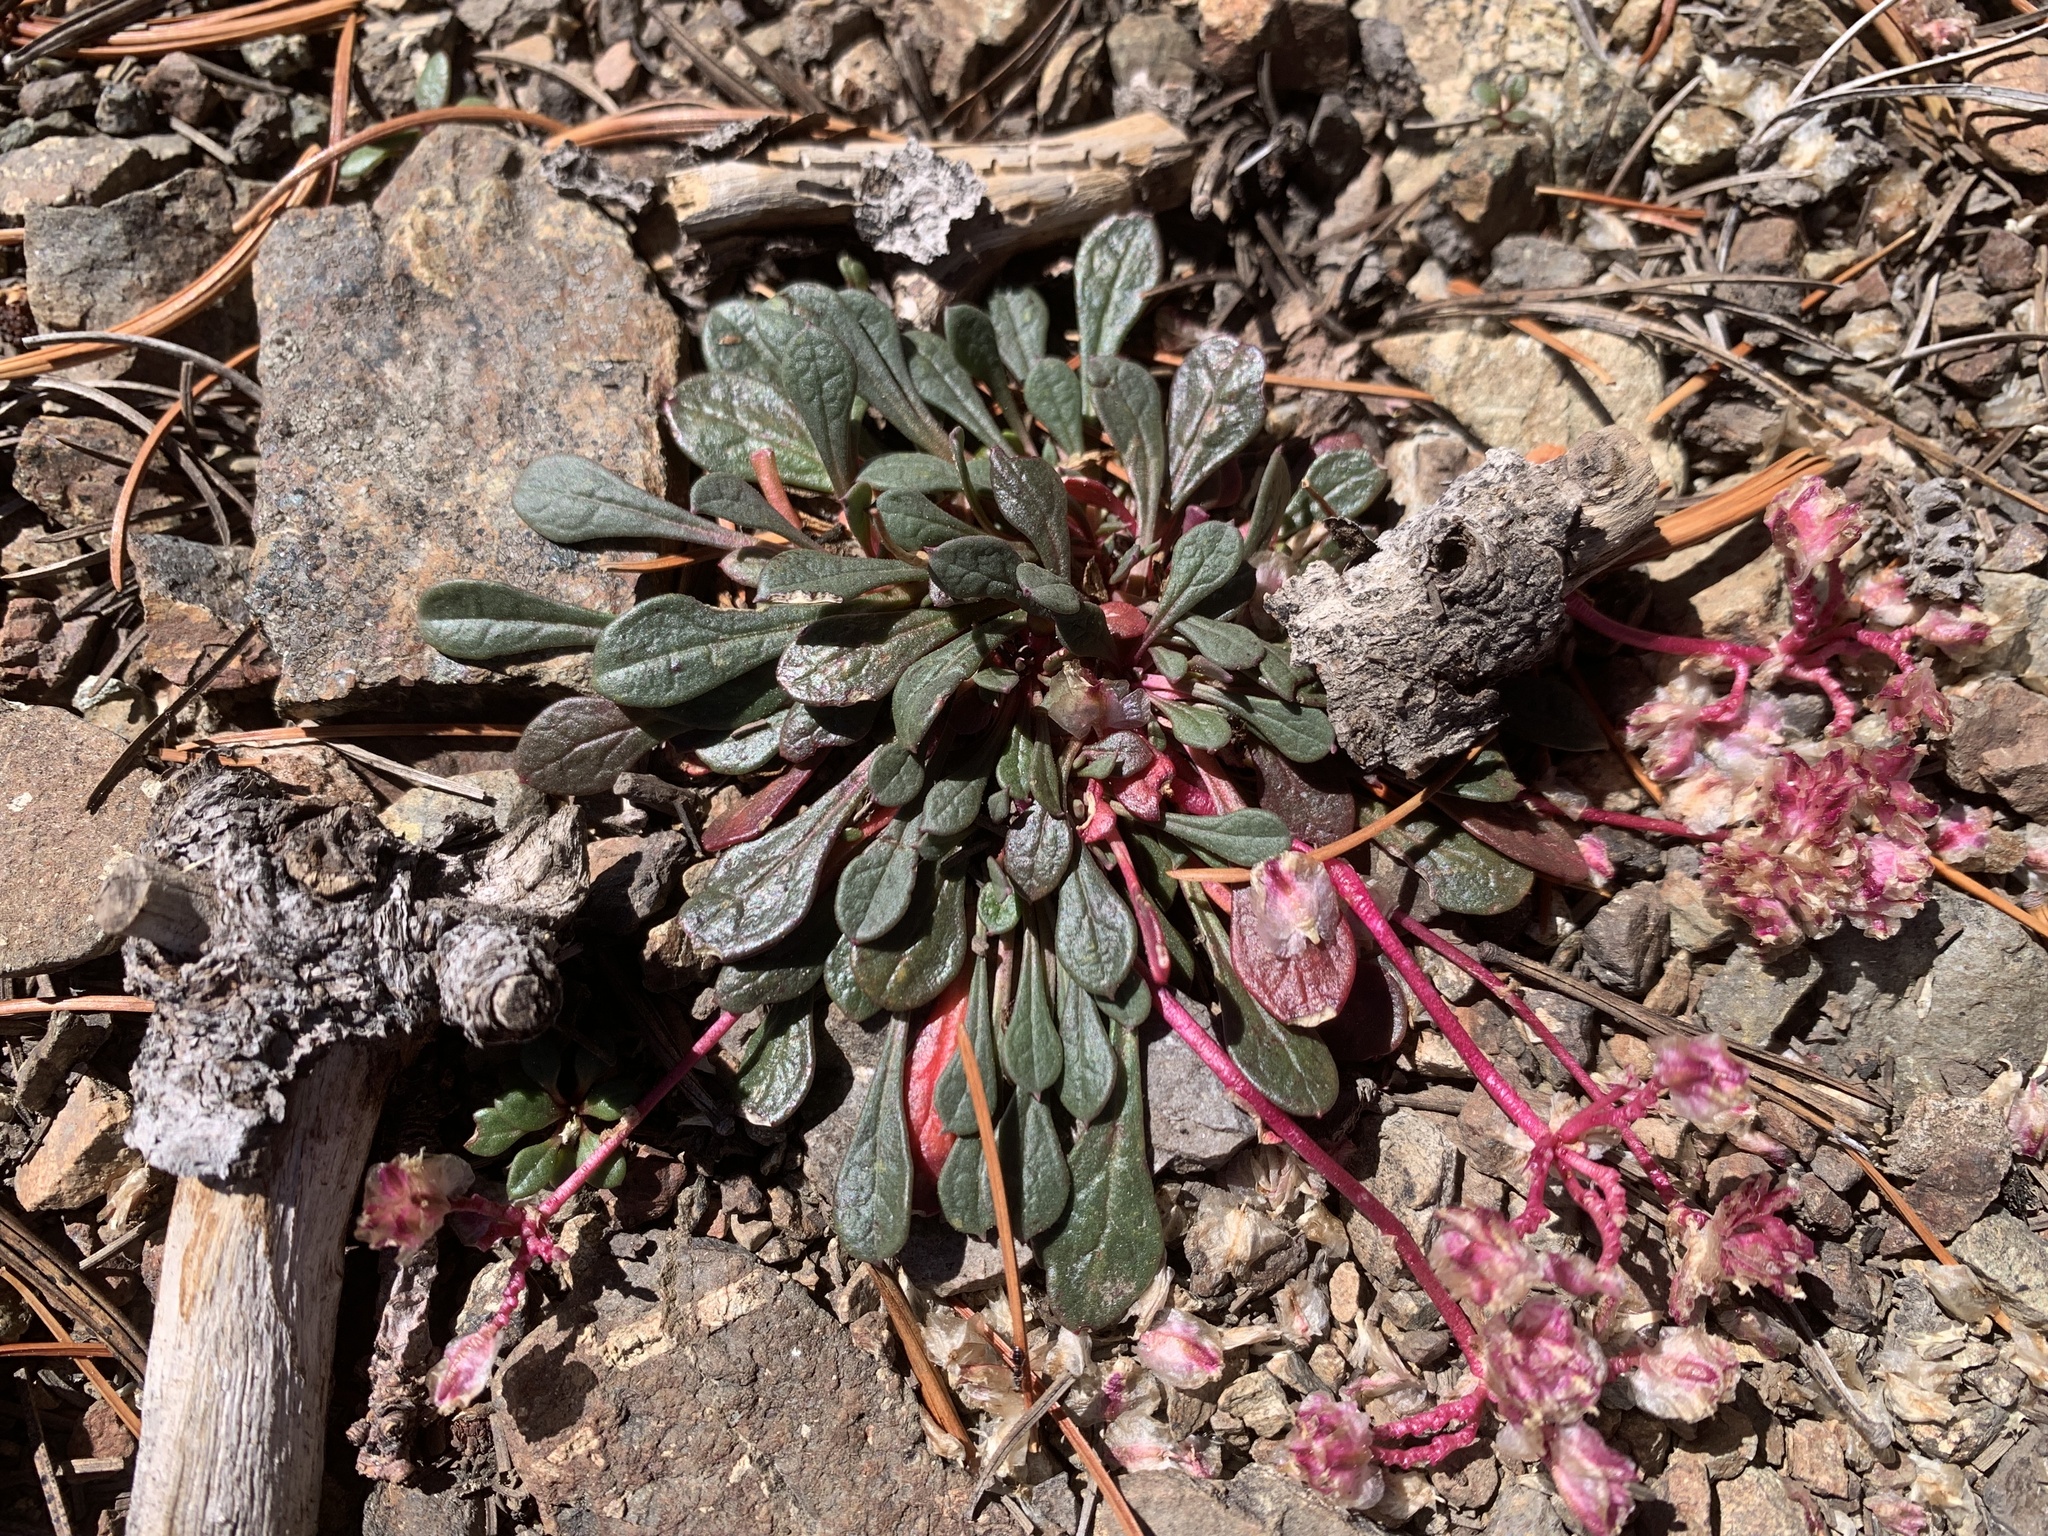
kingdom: Plantae
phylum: Tracheophyta
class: Magnoliopsida
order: Caryophyllales
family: Montiaceae
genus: Calyptridium
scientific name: Calyptridium umbellatum
